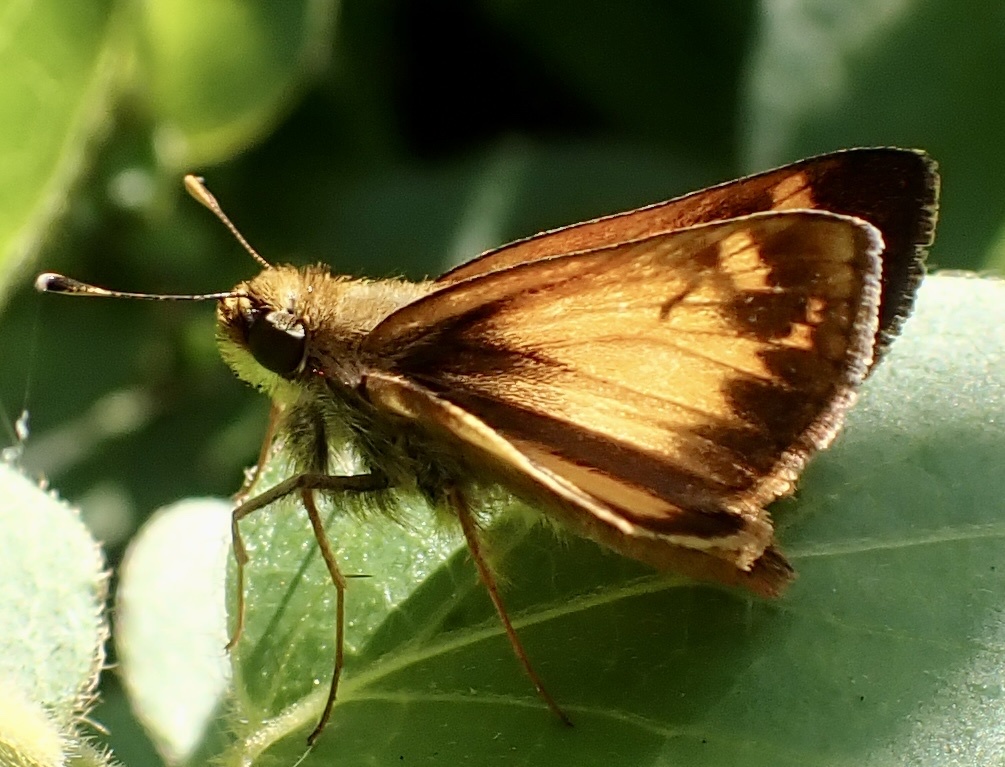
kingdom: Animalia
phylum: Arthropoda
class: Insecta
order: Lepidoptera
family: Hesperiidae
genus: Lon
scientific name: Lon zabulon
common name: Zabulon skipper
